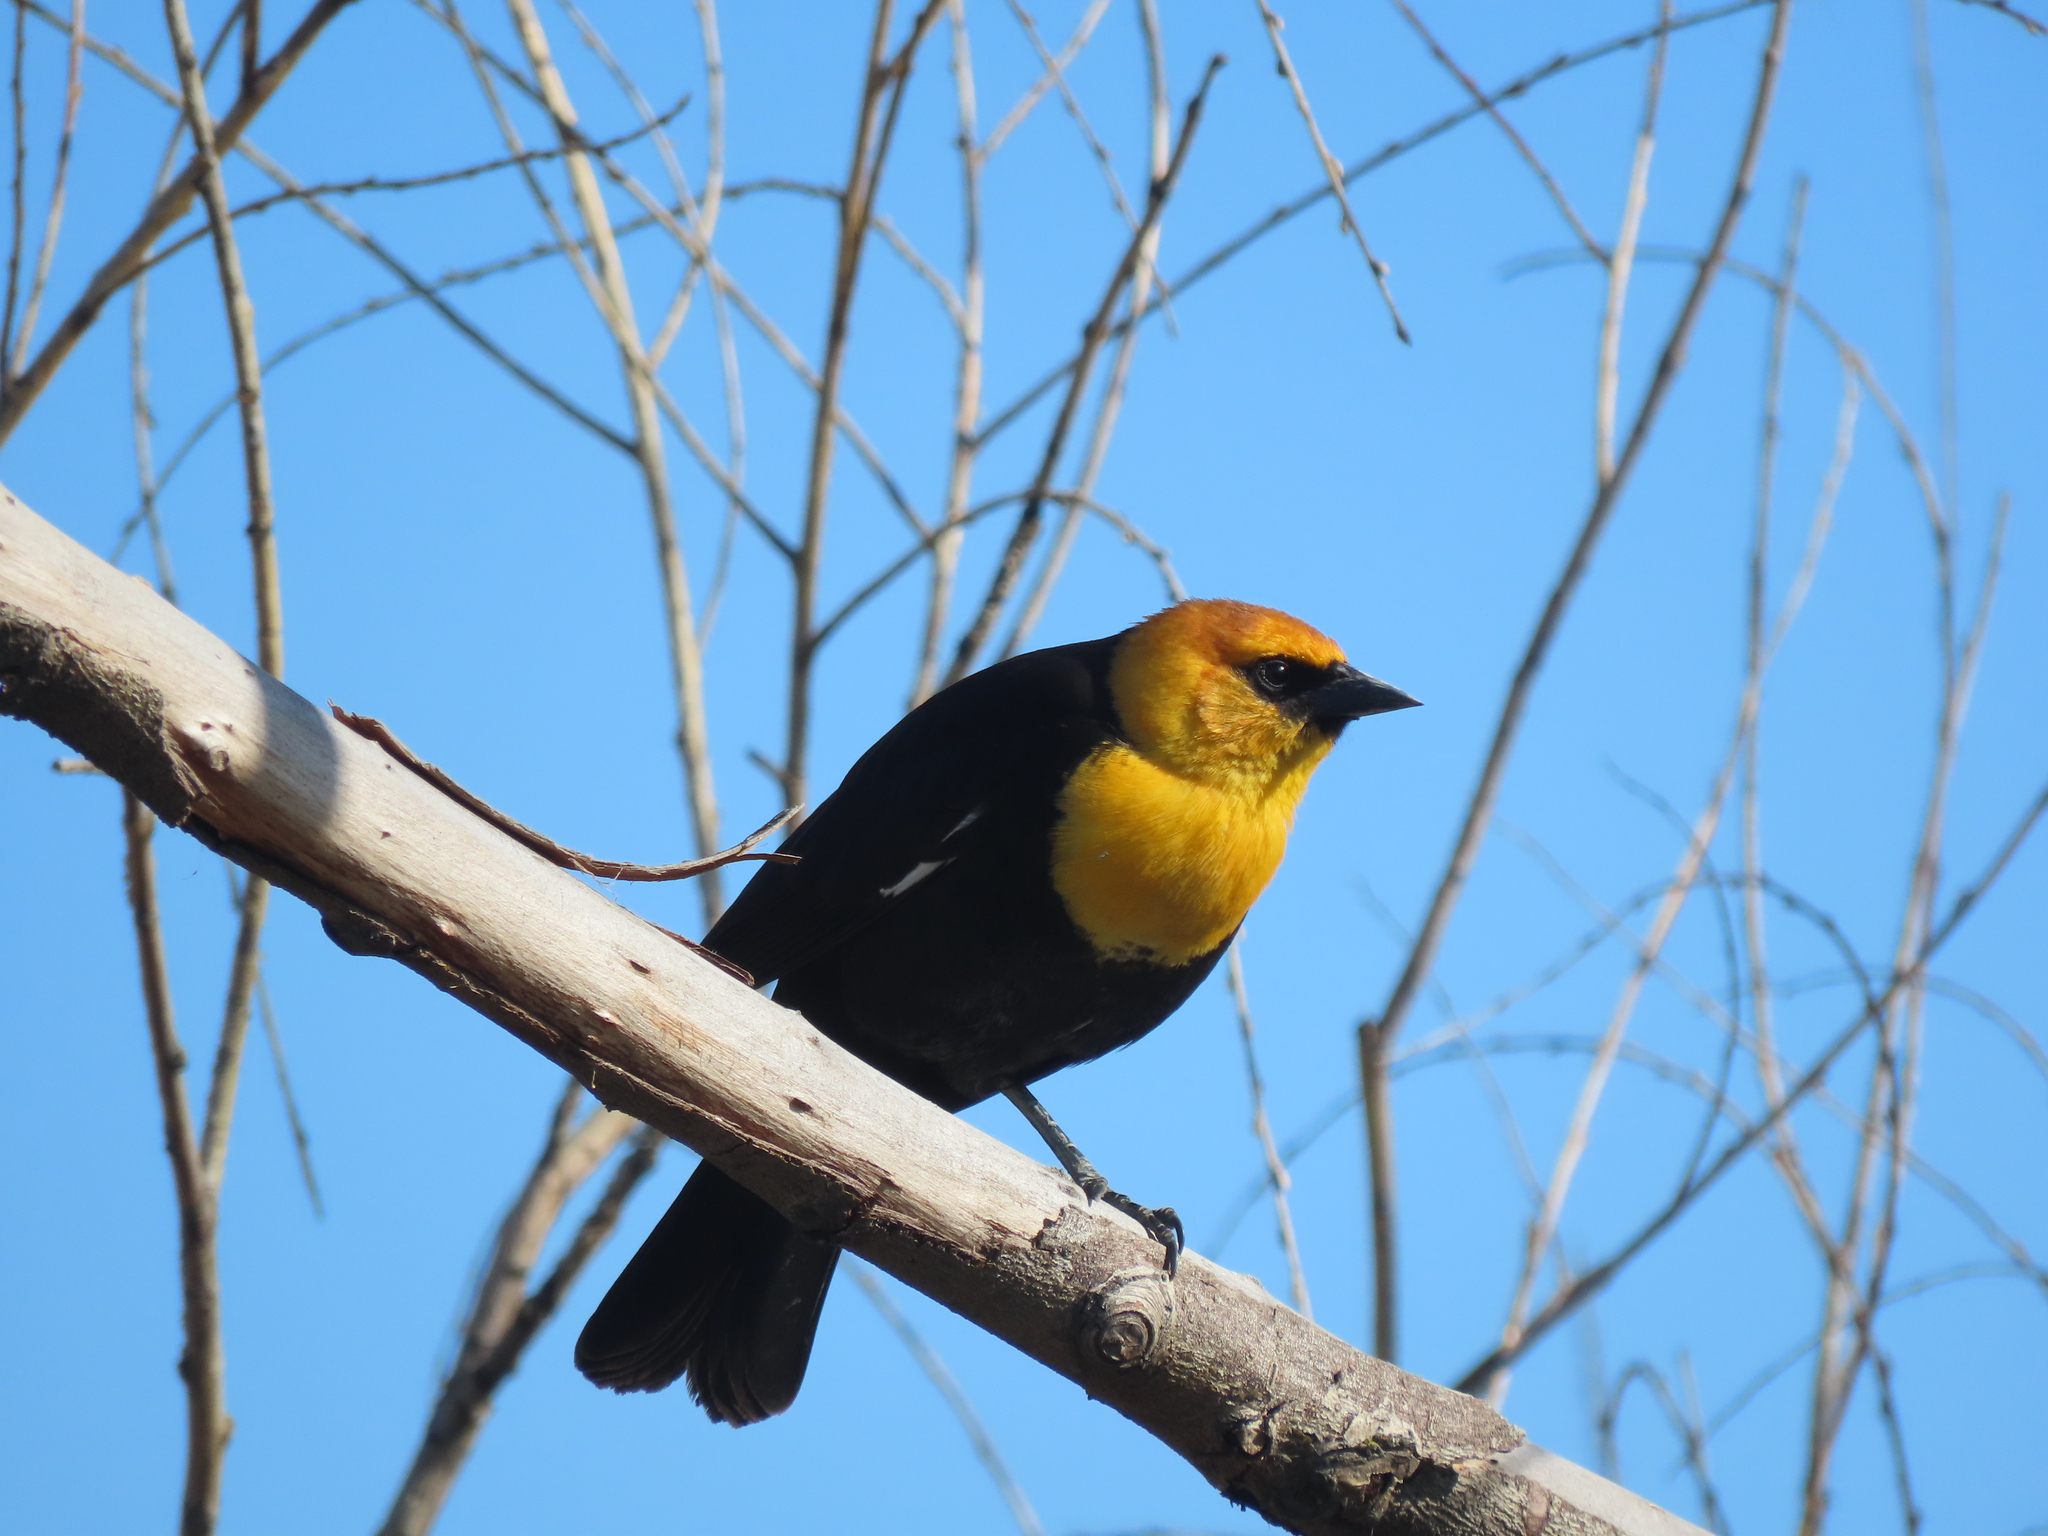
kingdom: Animalia
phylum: Chordata
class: Aves
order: Passeriformes
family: Icteridae
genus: Xanthocephalus
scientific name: Xanthocephalus xanthocephalus
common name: Yellow-headed blackbird
